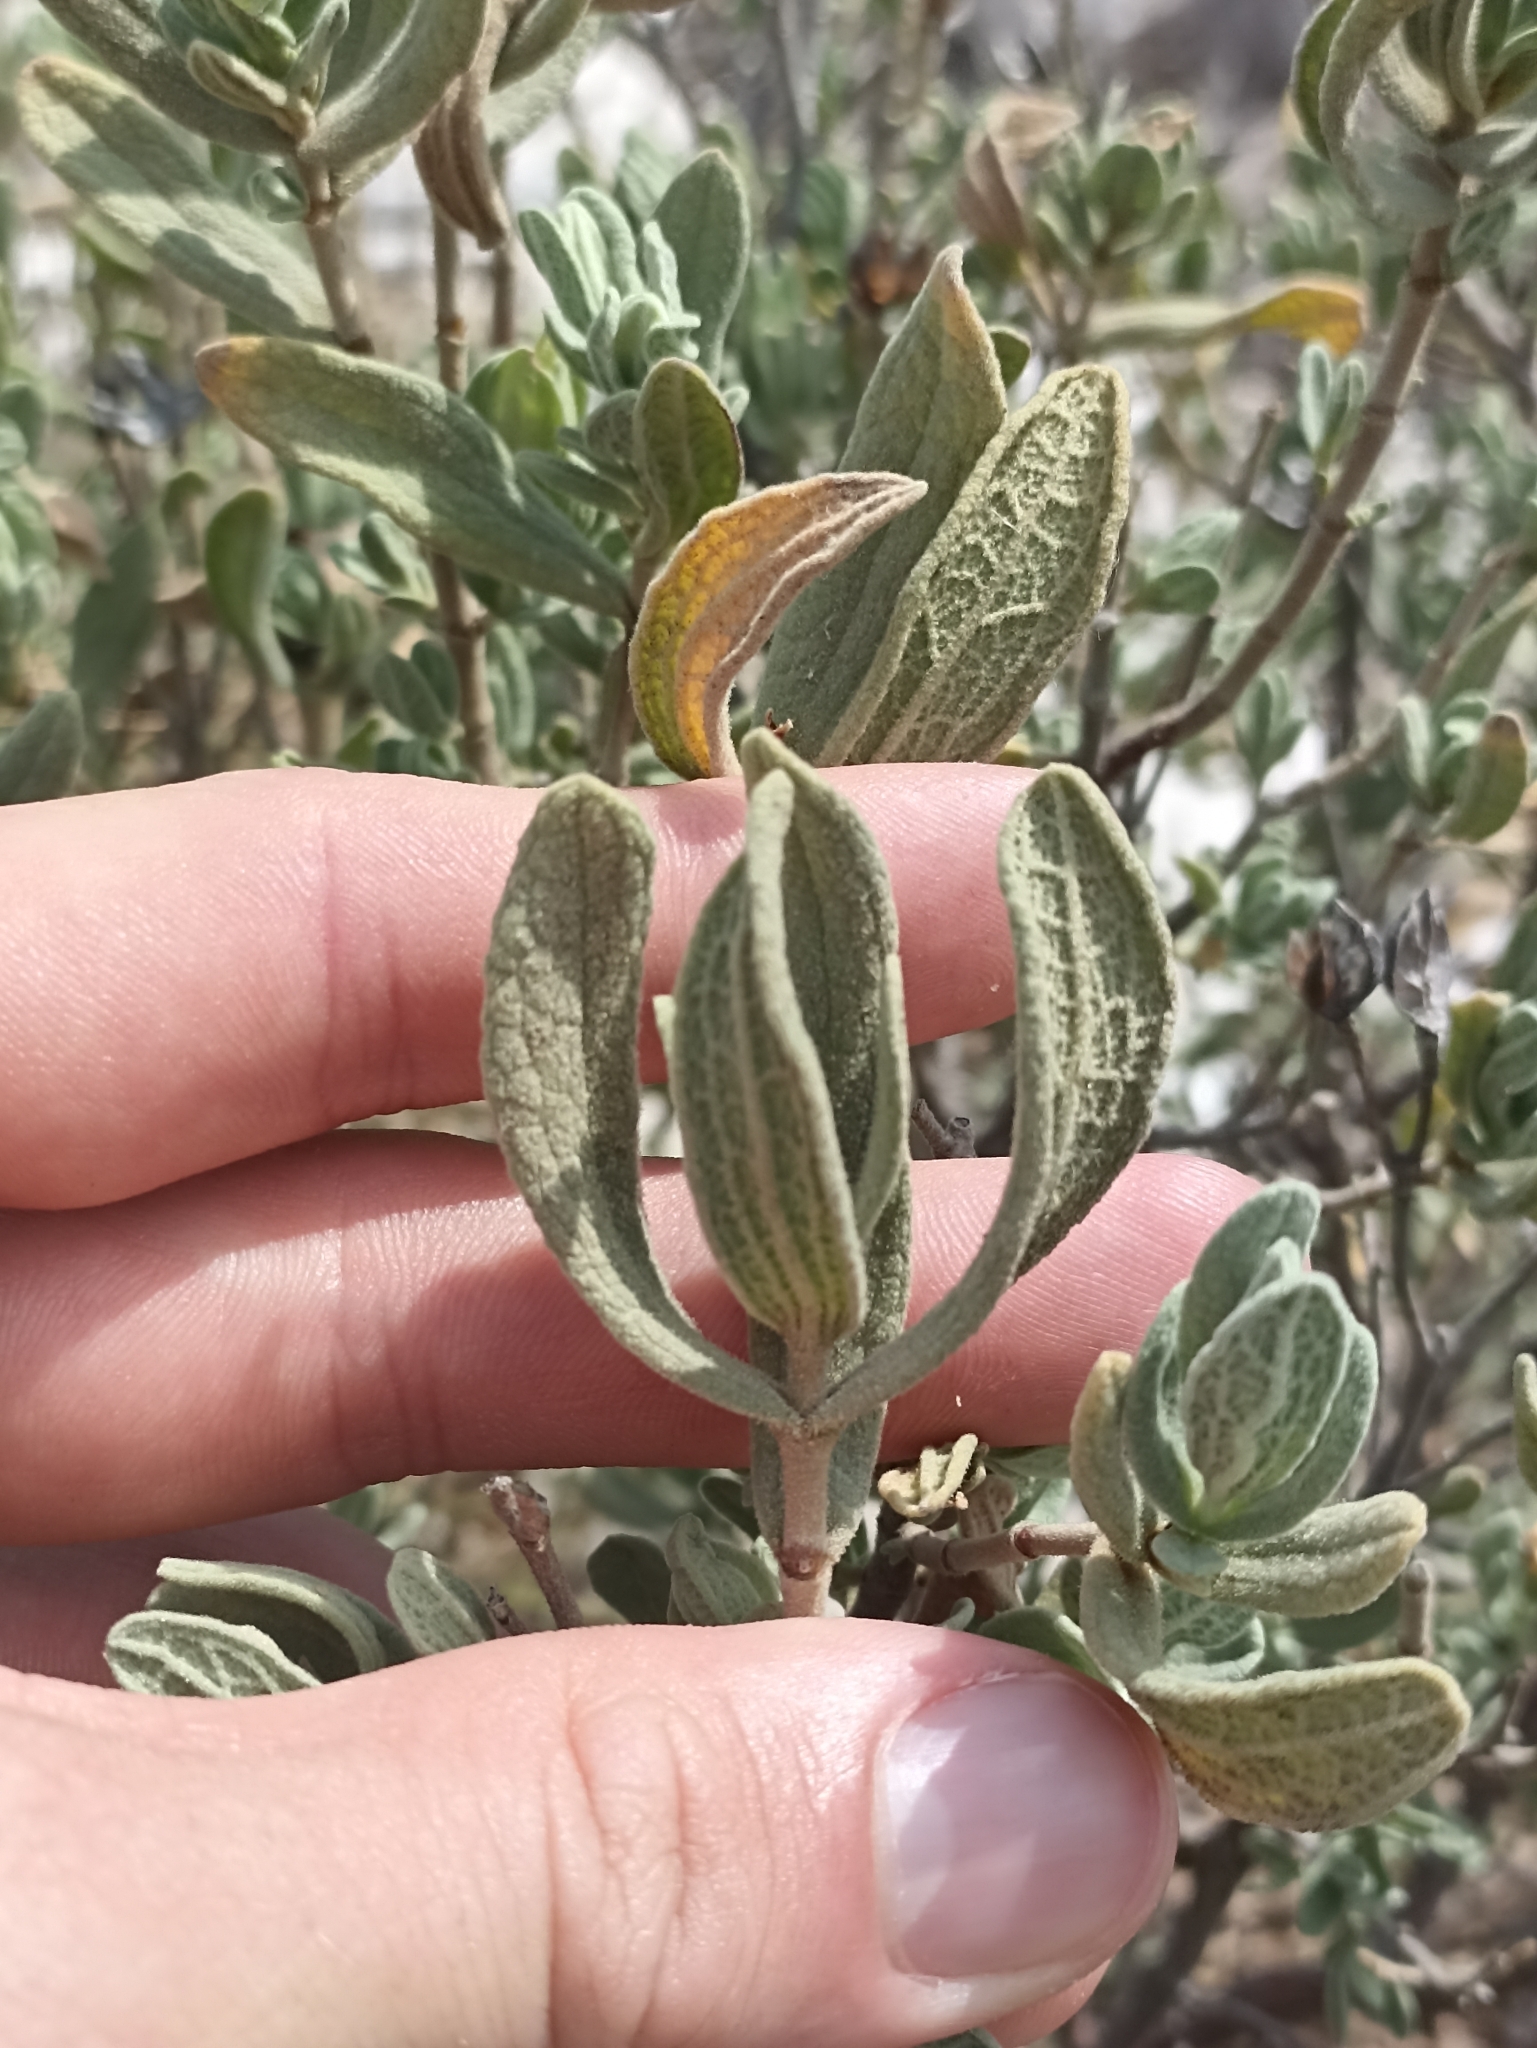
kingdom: Plantae
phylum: Tracheophyta
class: Magnoliopsida
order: Malvales
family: Cistaceae
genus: Cistus
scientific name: Cistus albidus
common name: White-leaf rock-rose
